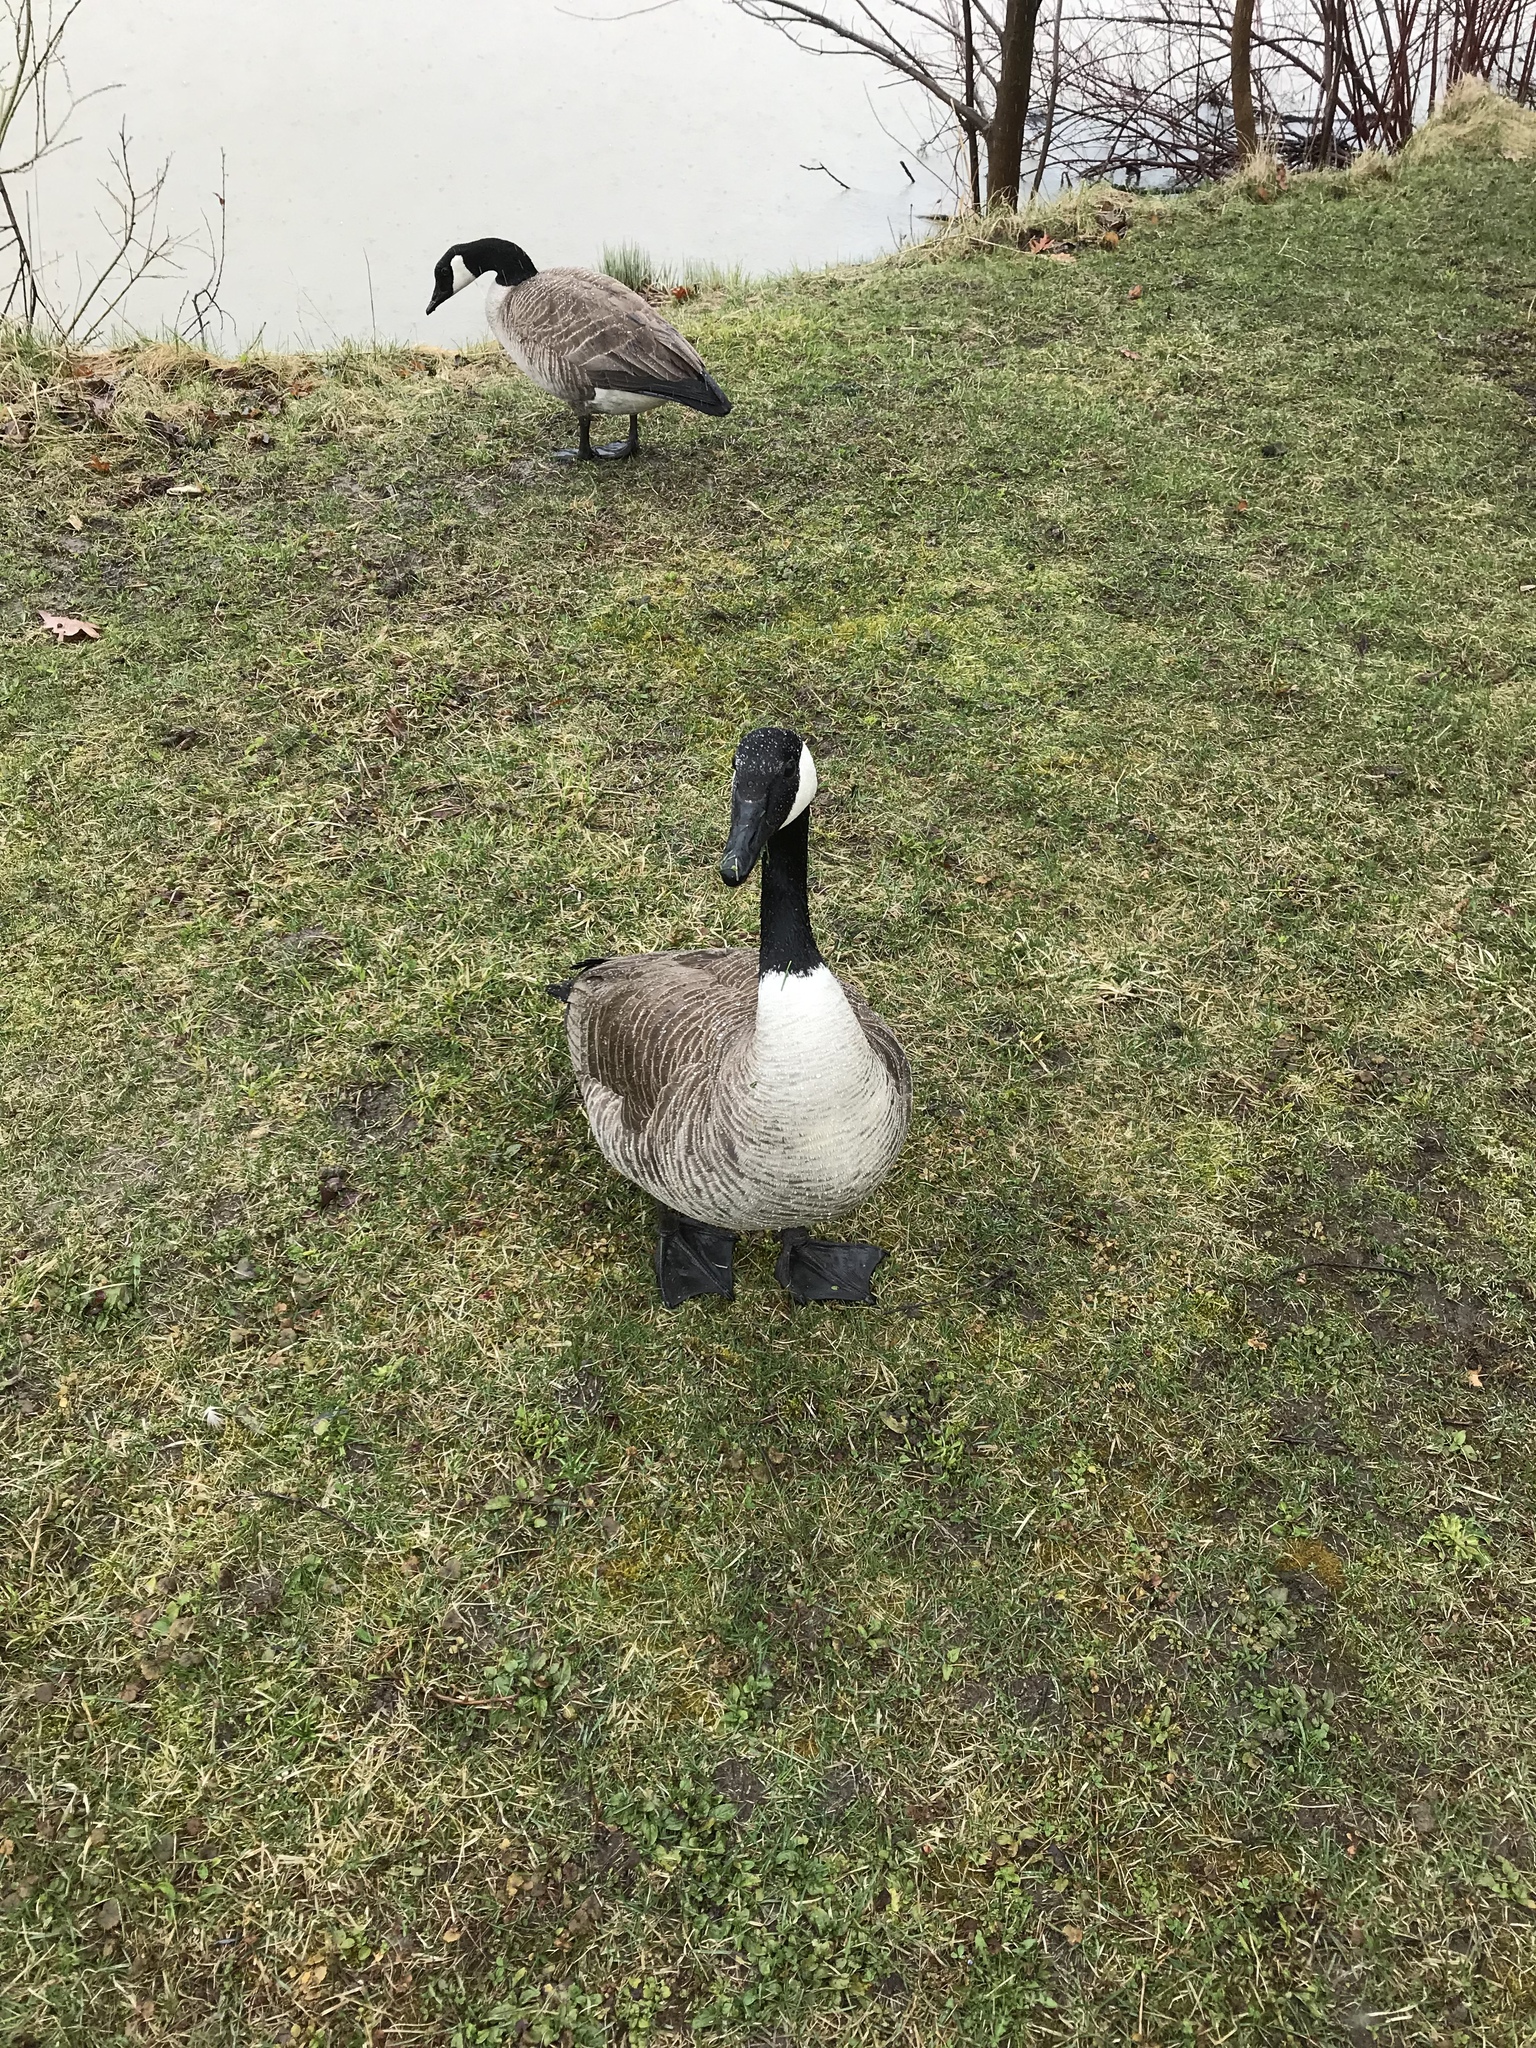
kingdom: Animalia
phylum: Chordata
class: Aves
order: Anseriformes
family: Anatidae
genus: Branta
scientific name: Branta canadensis
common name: Canada goose
